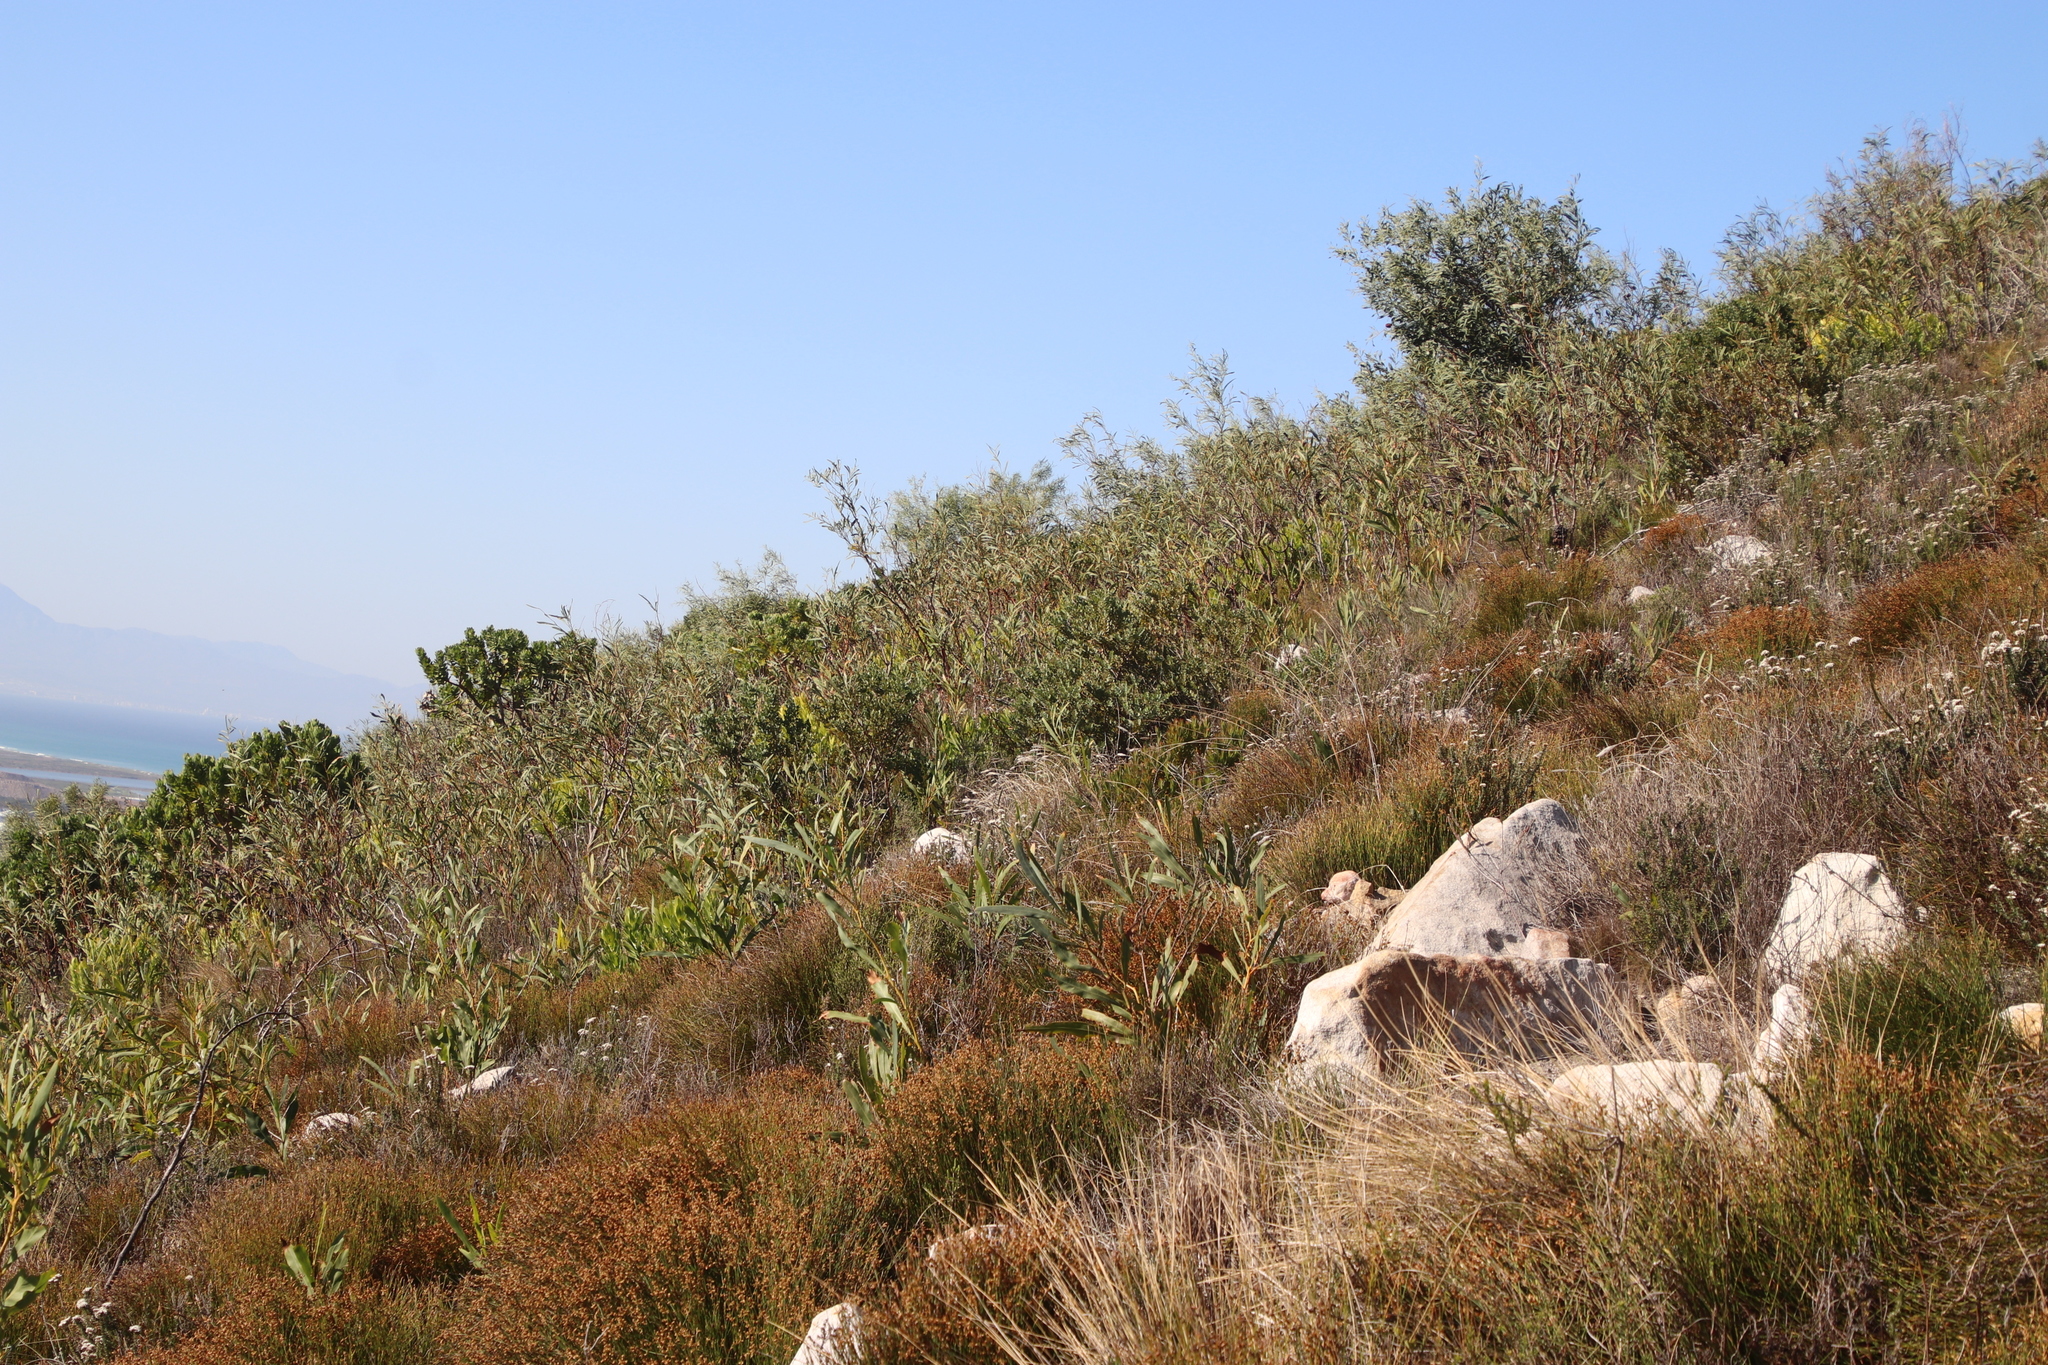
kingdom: Plantae
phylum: Tracheophyta
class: Magnoliopsida
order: Fabales
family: Fabaceae
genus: Acacia
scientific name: Acacia saligna
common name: Orange wattle
